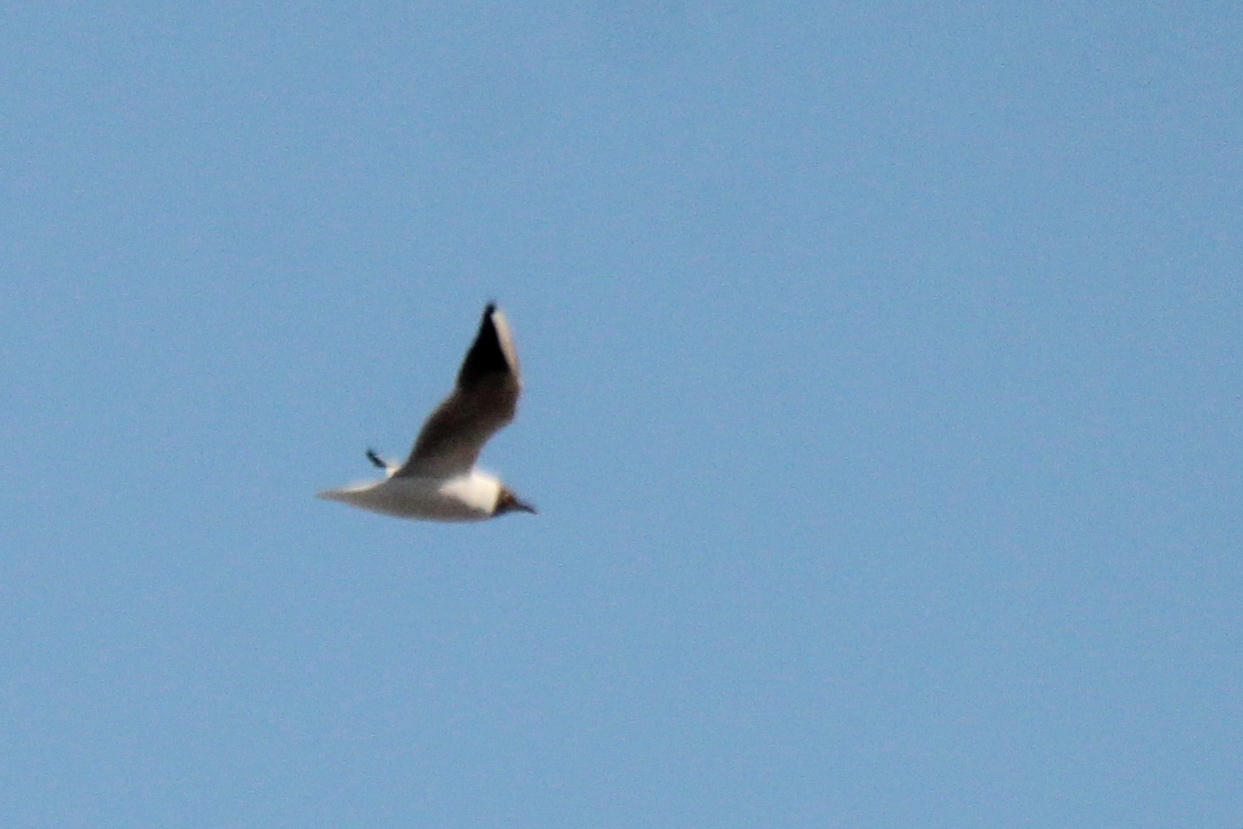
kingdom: Animalia
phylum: Chordata
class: Aves
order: Charadriiformes
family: Laridae
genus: Chroicocephalus
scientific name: Chroicocephalus ridibundus
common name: Black-headed gull
